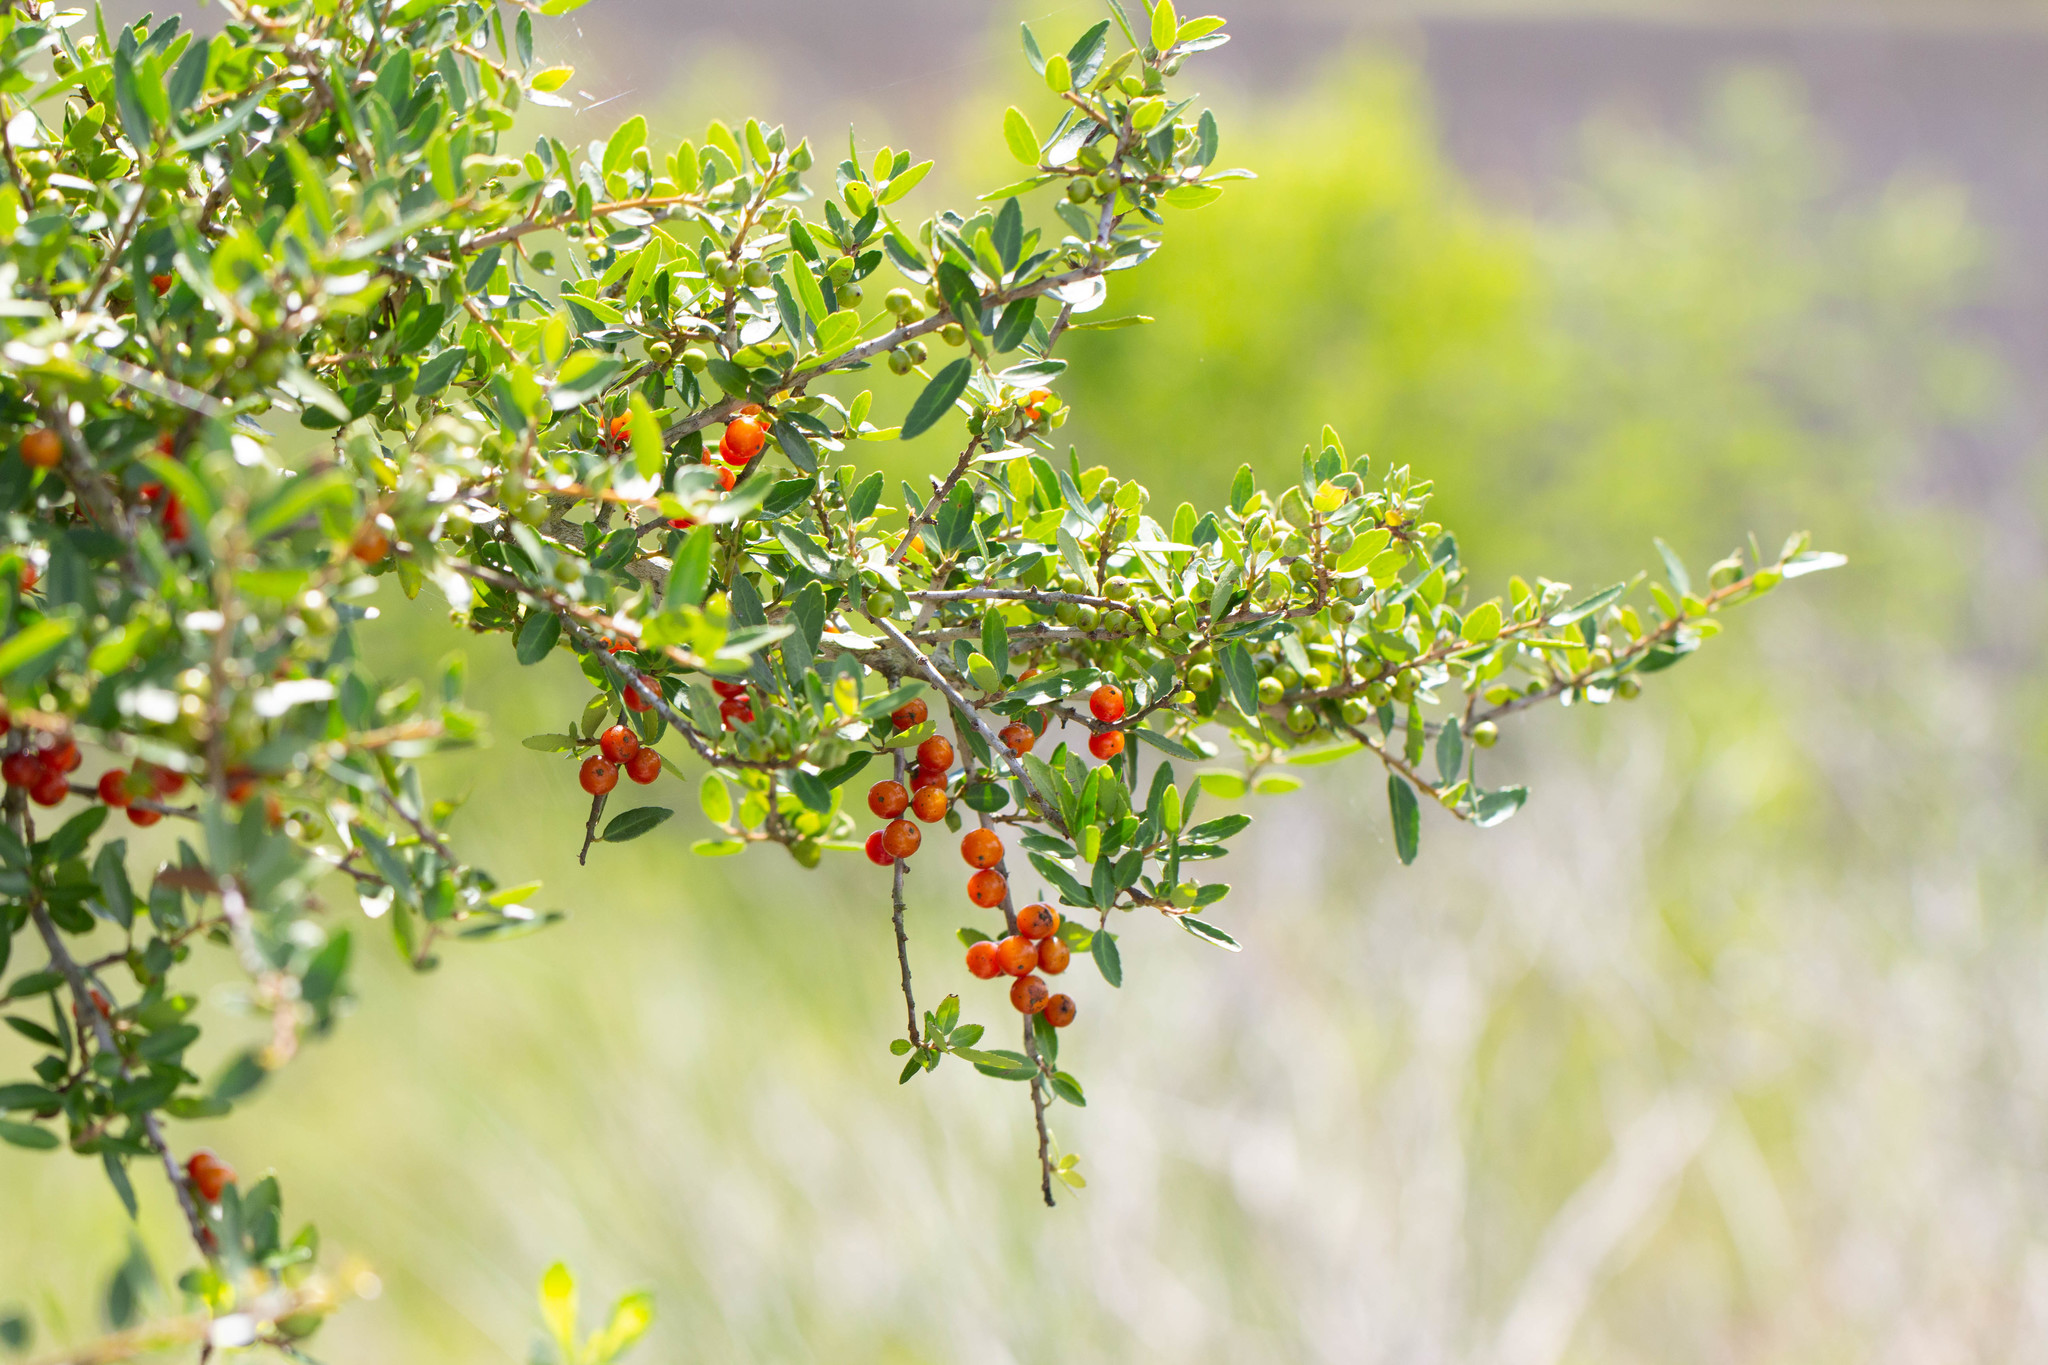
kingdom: Plantae
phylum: Tracheophyta
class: Magnoliopsida
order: Aquifoliales
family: Aquifoliaceae
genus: Ilex
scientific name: Ilex vomitoria
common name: Yaupon holly
